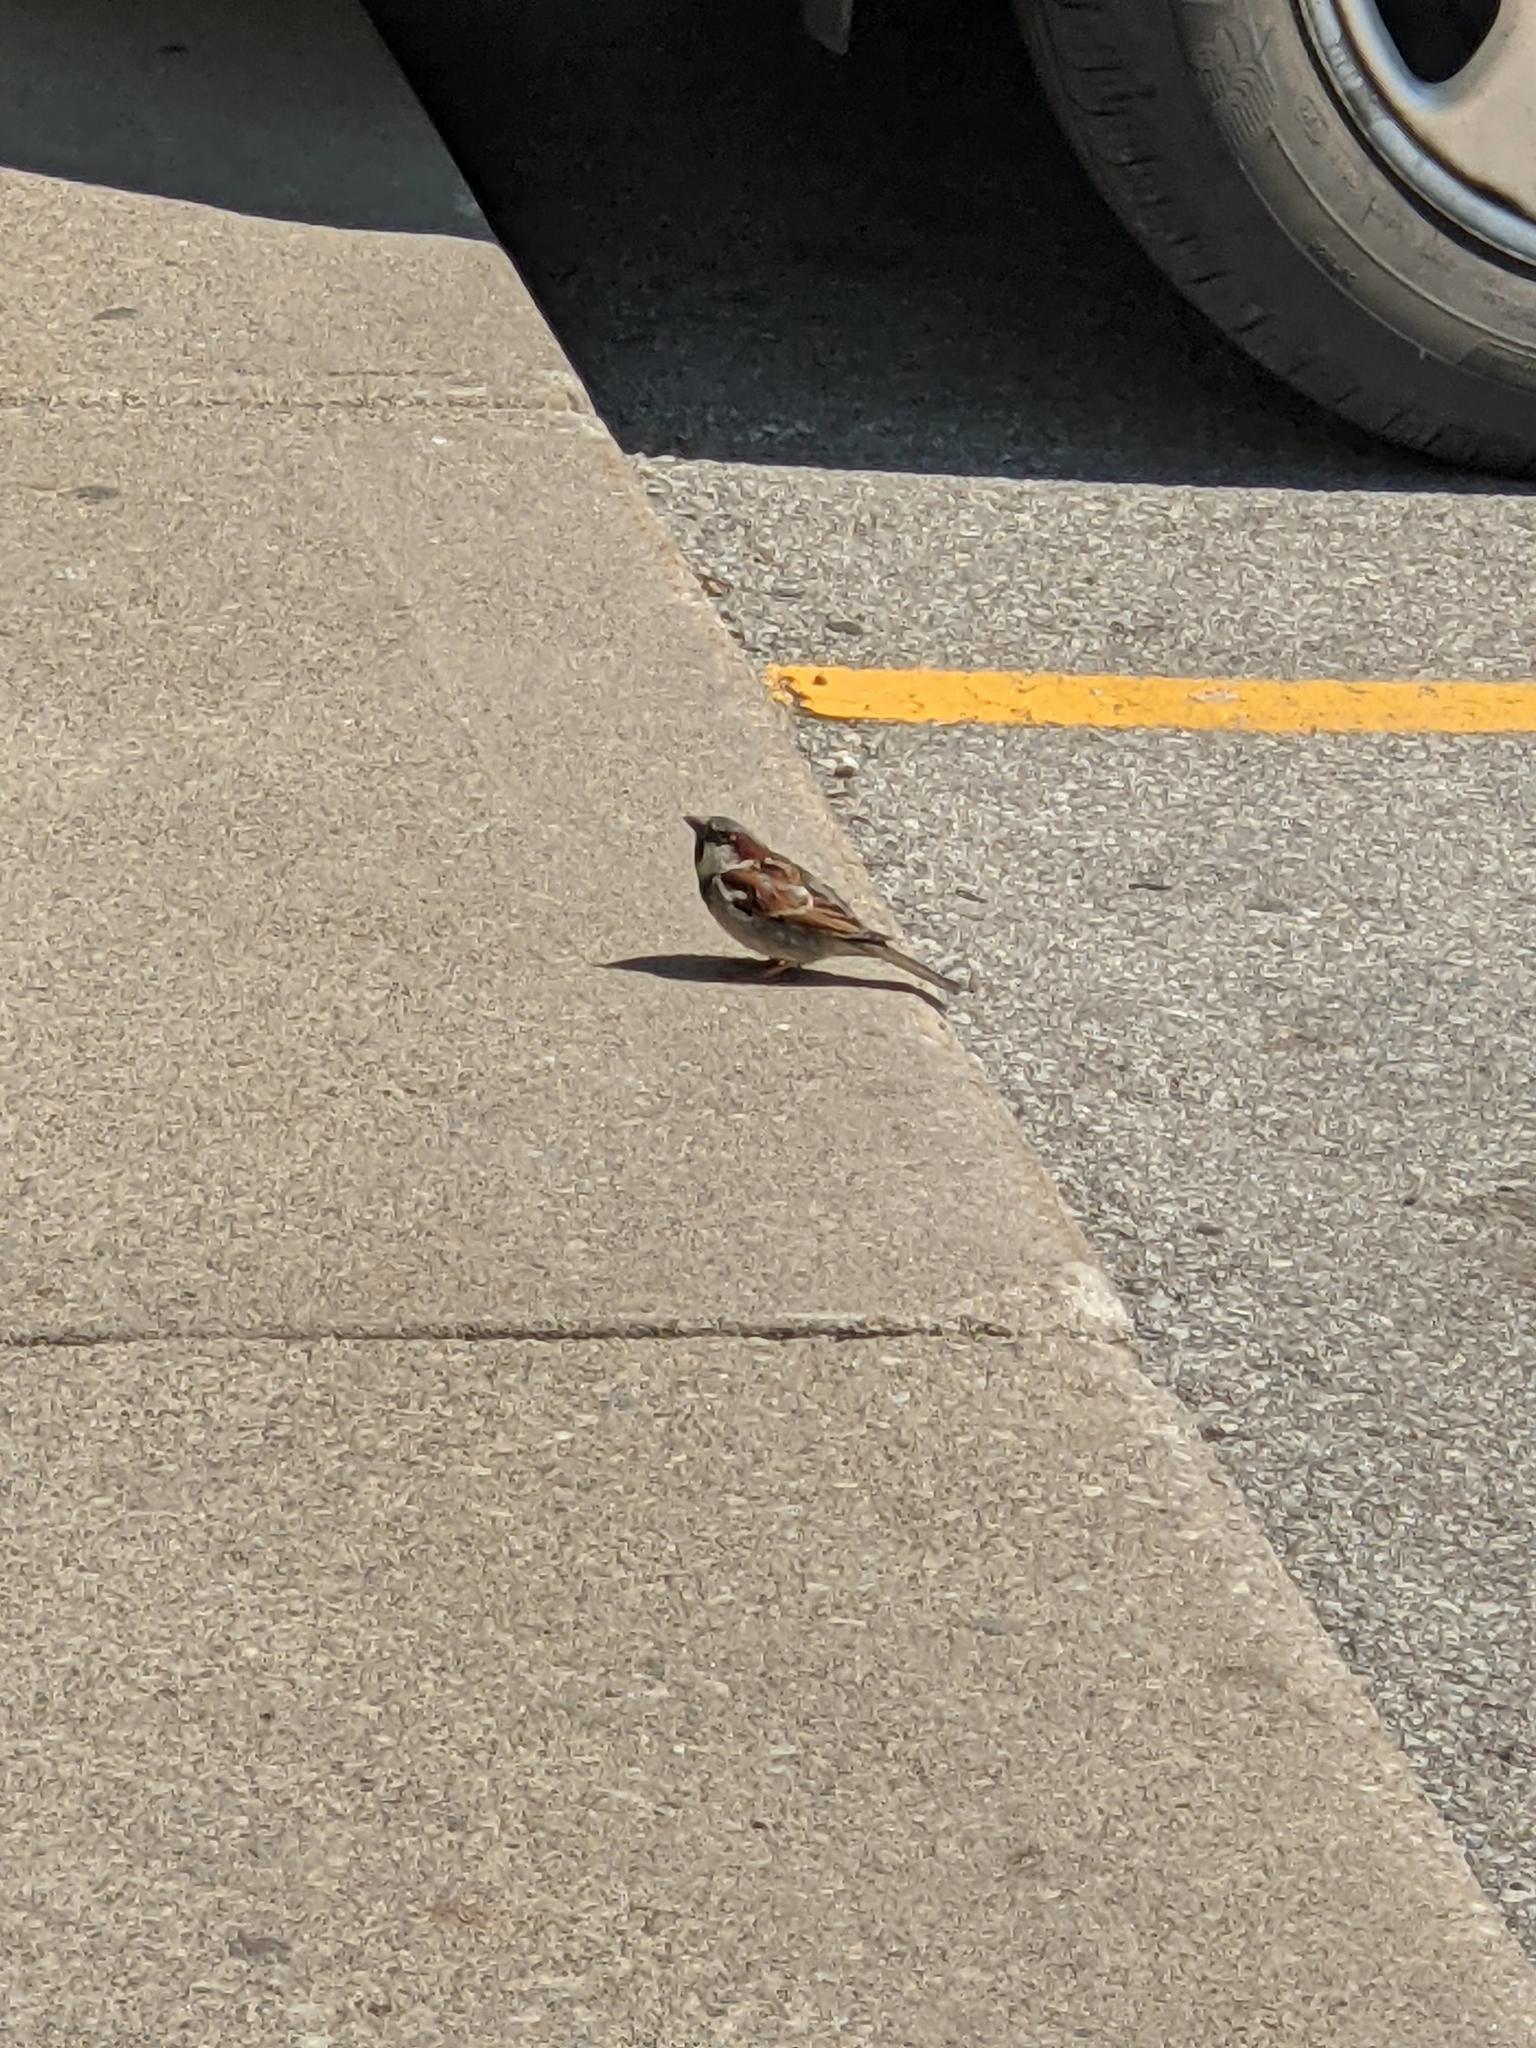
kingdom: Animalia
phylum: Chordata
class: Aves
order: Passeriformes
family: Passeridae
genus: Passer
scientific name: Passer domesticus
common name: House sparrow
